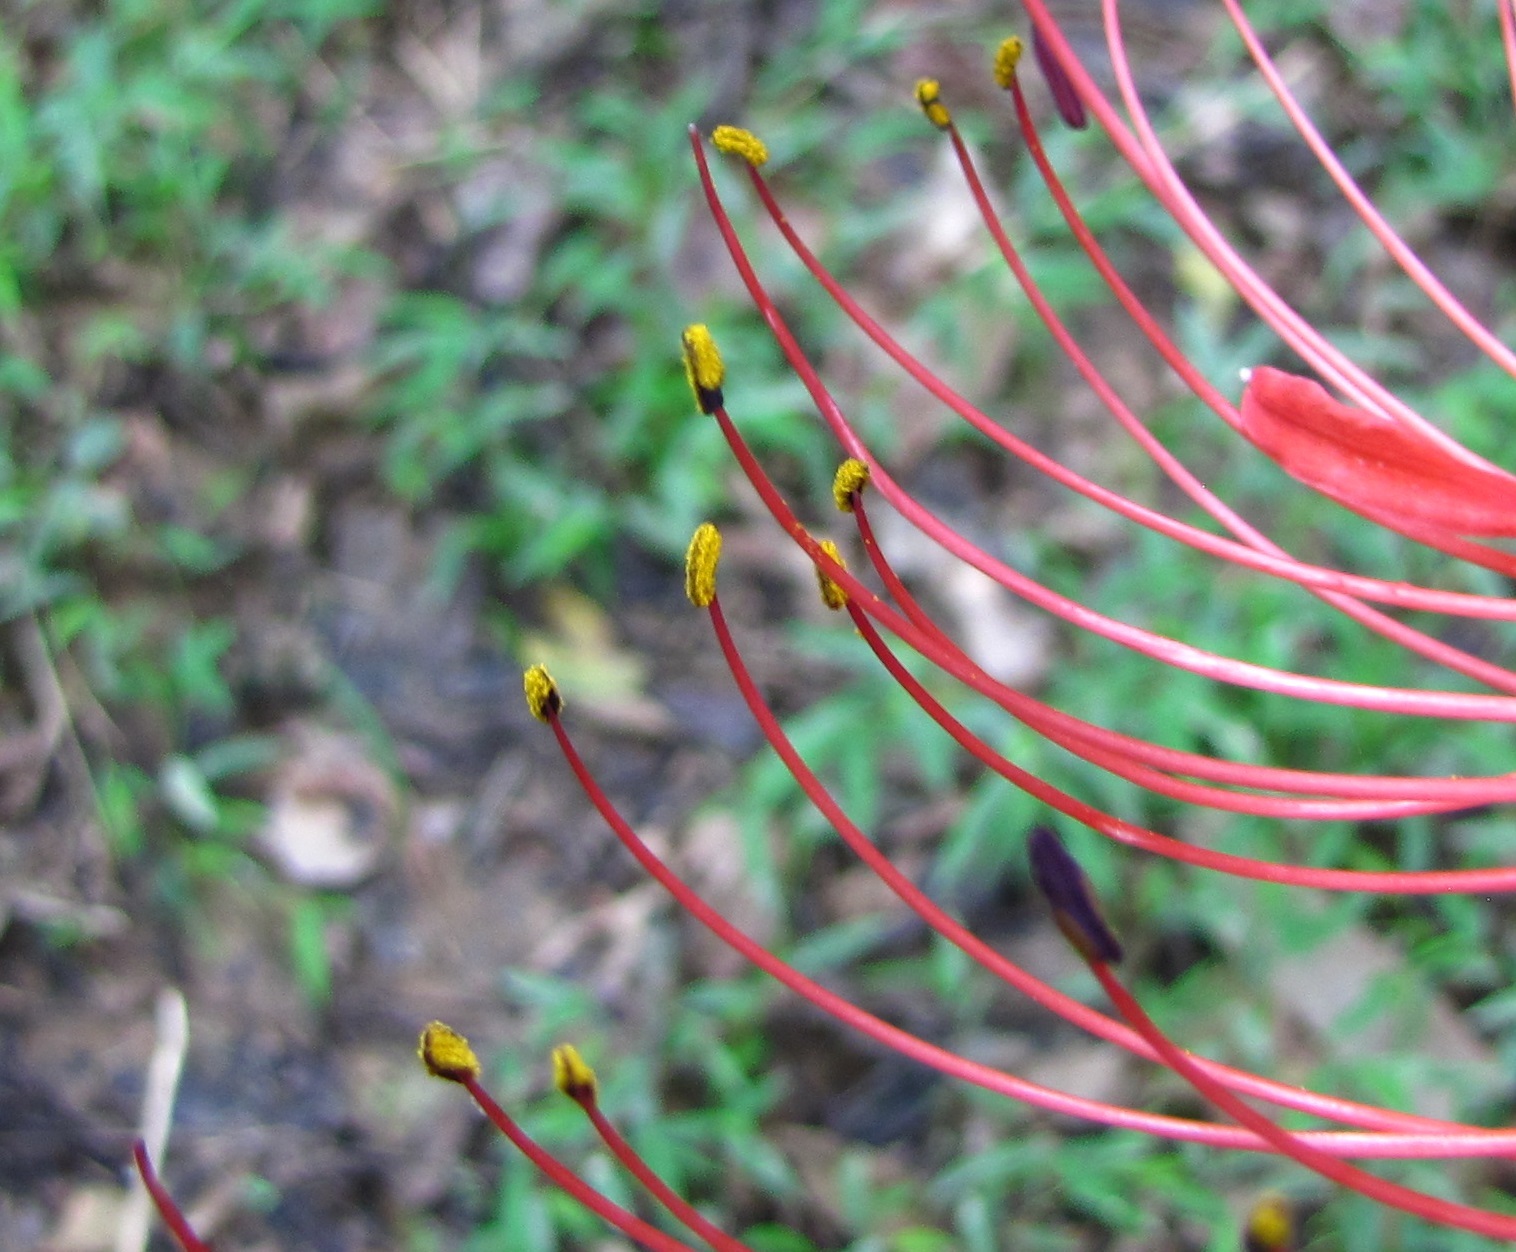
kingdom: Plantae
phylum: Tracheophyta
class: Liliopsida
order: Asparagales
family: Amaryllidaceae
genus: Lycoris
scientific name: Lycoris radiata
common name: Red spider lily
